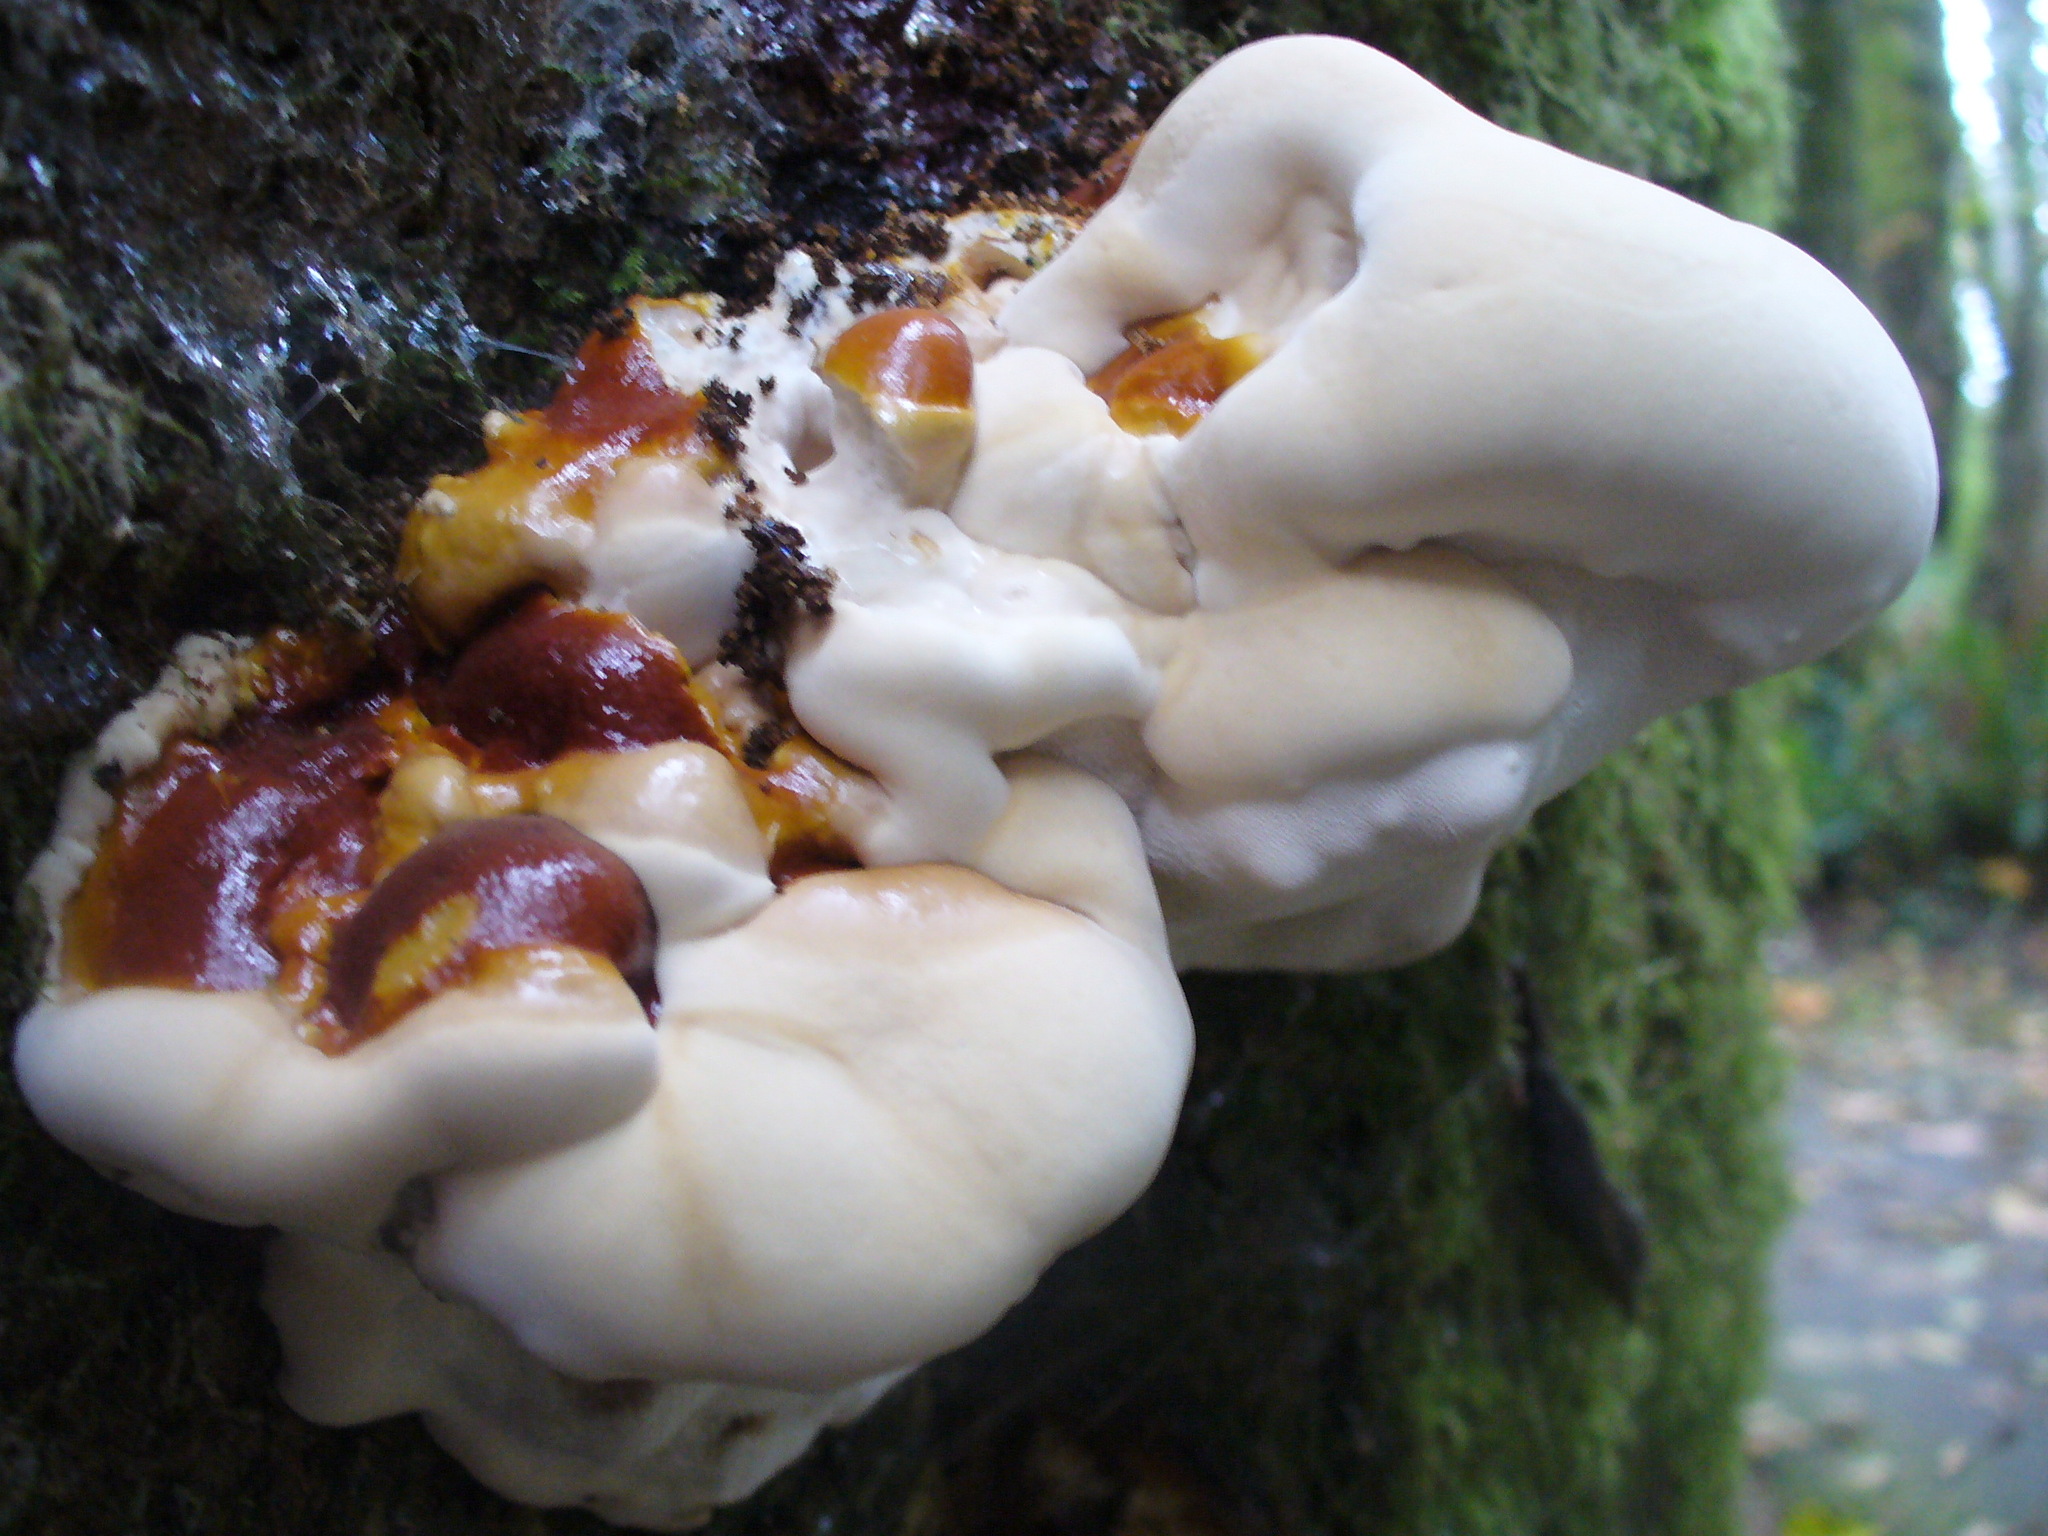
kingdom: Fungi
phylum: Basidiomycota
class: Agaricomycetes
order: Polyporales
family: Polyporaceae
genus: Ganoderma
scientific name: Ganoderma oregonense
